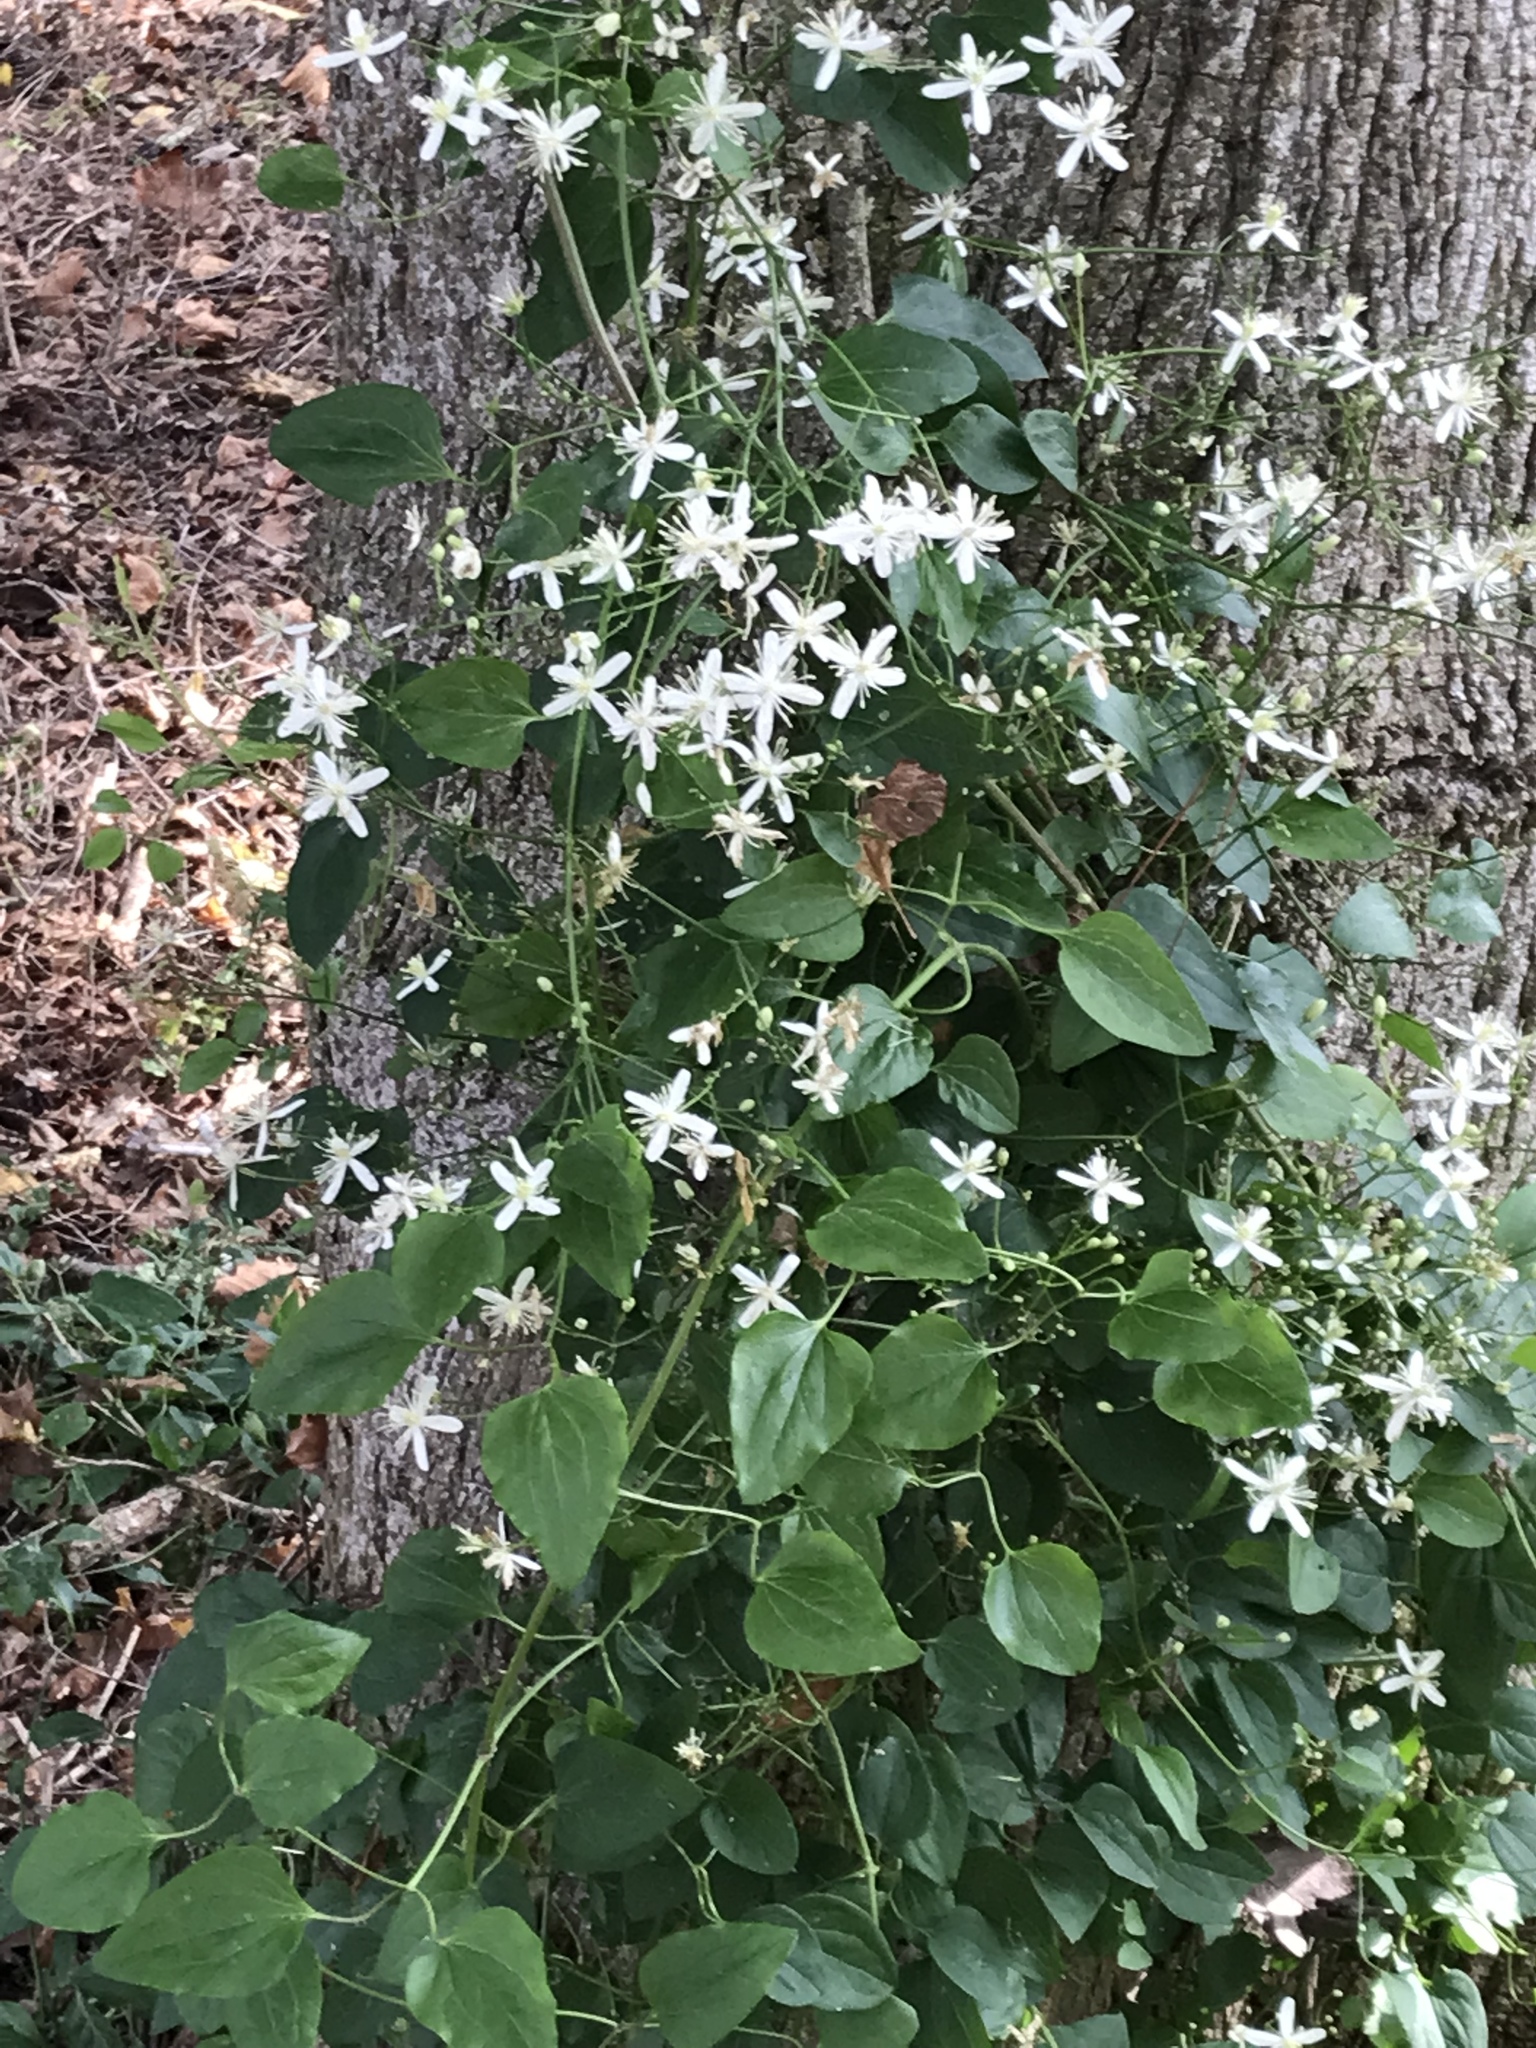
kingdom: Plantae
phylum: Tracheophyta
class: Magnoliopsida
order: Ranunculales
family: Ranunculaceae
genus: Clematis
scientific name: Clematis terniflora
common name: Sweet autumn clematis
